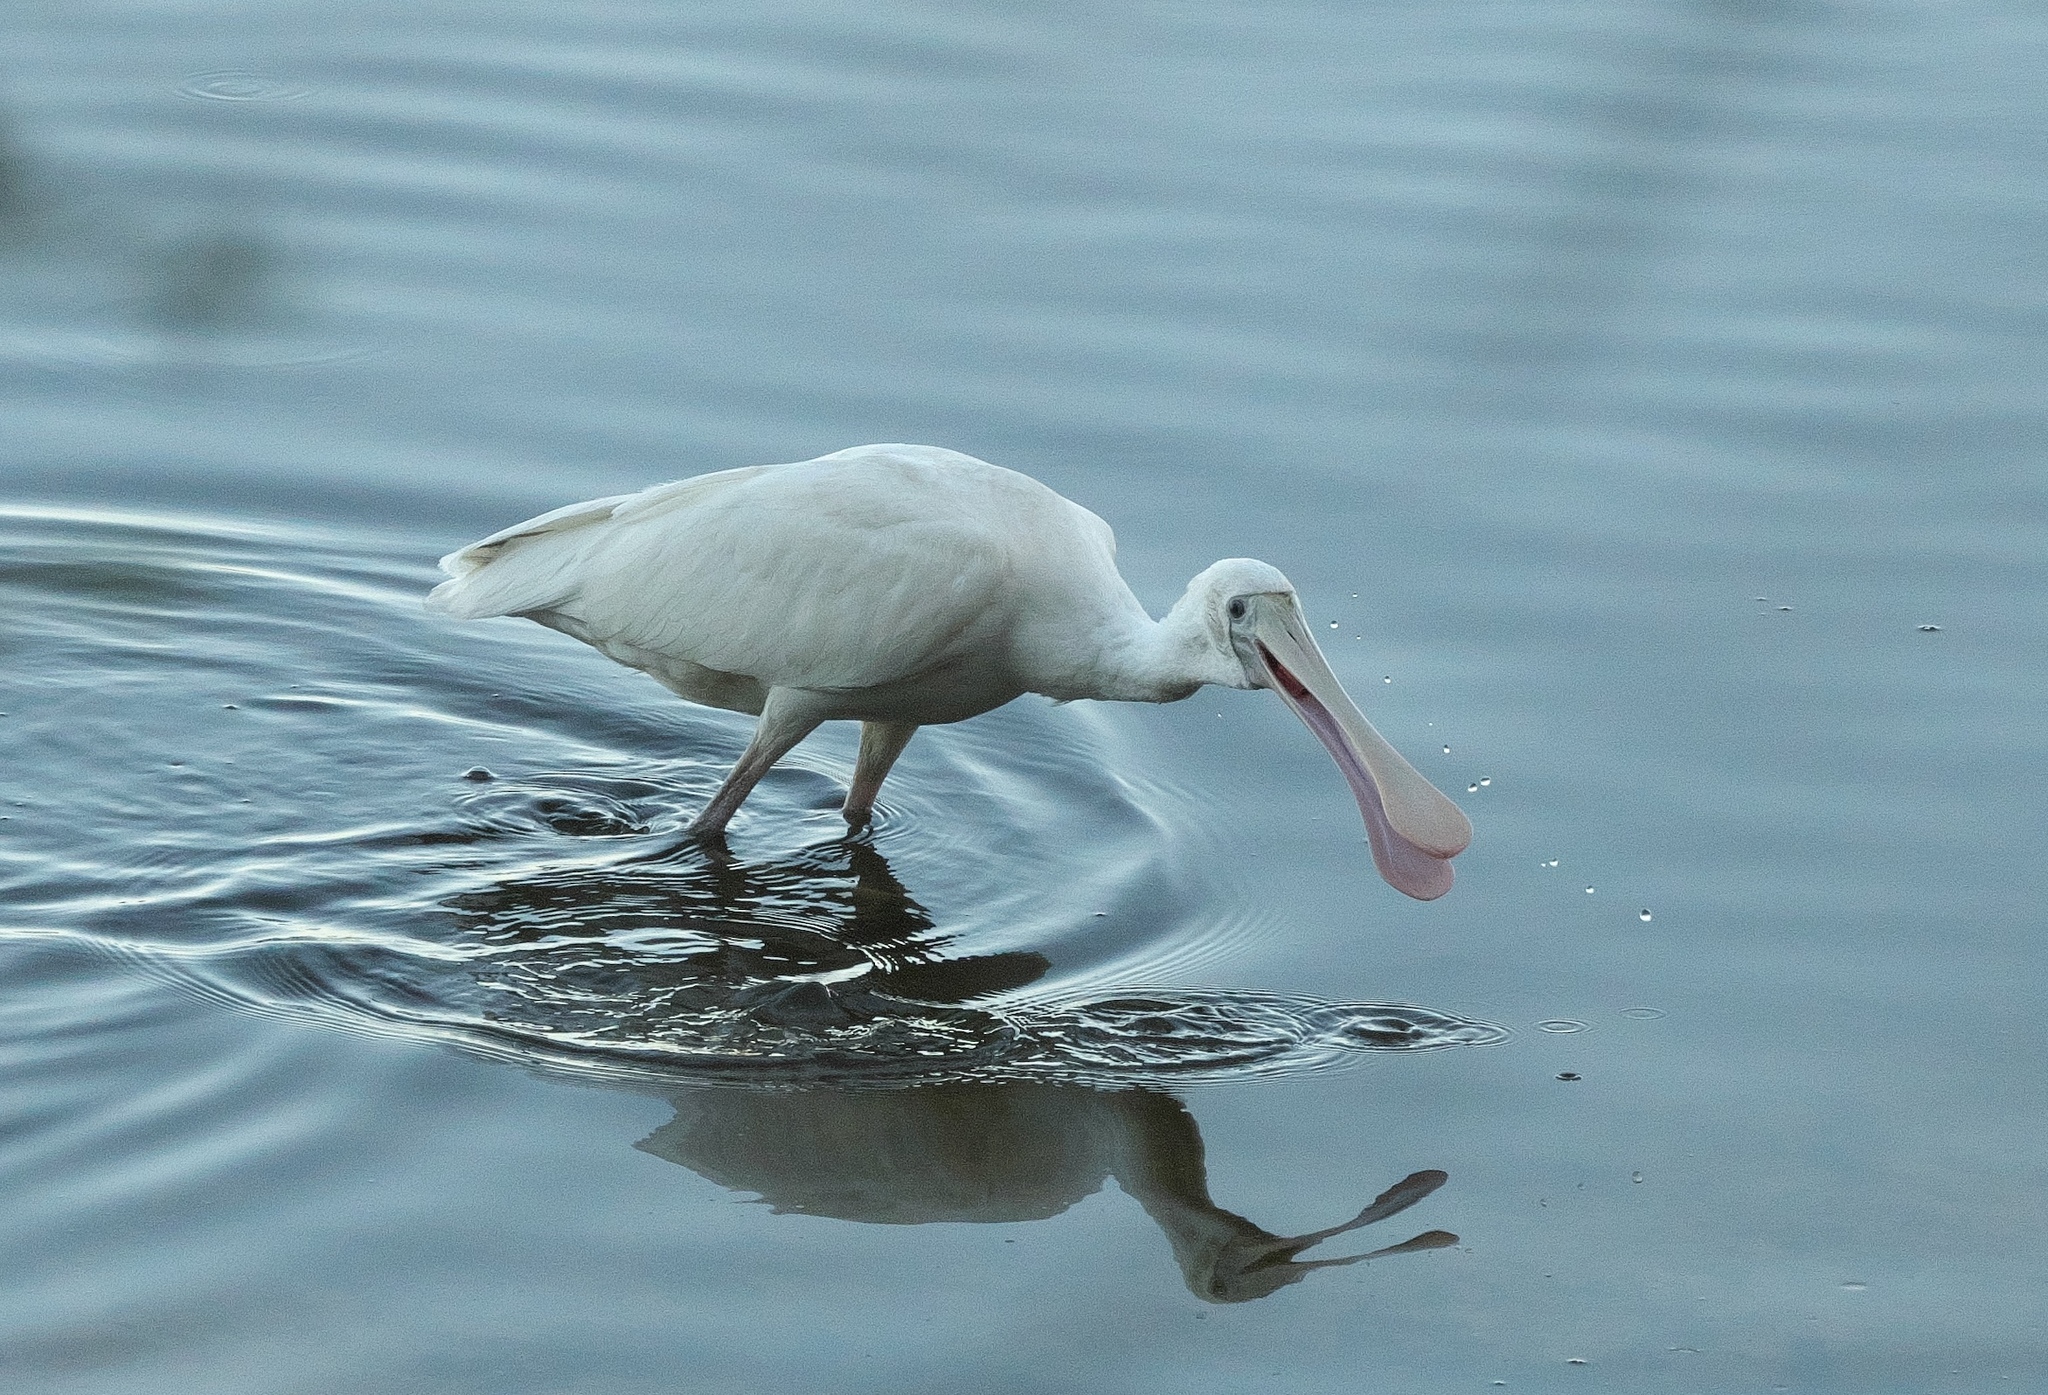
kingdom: Animalia
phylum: Chordata
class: Aves
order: Pelecaniformes
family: Threskiornithidae
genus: Platalea
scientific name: Platalea flavipes
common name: Yellow-billed spoonbill
